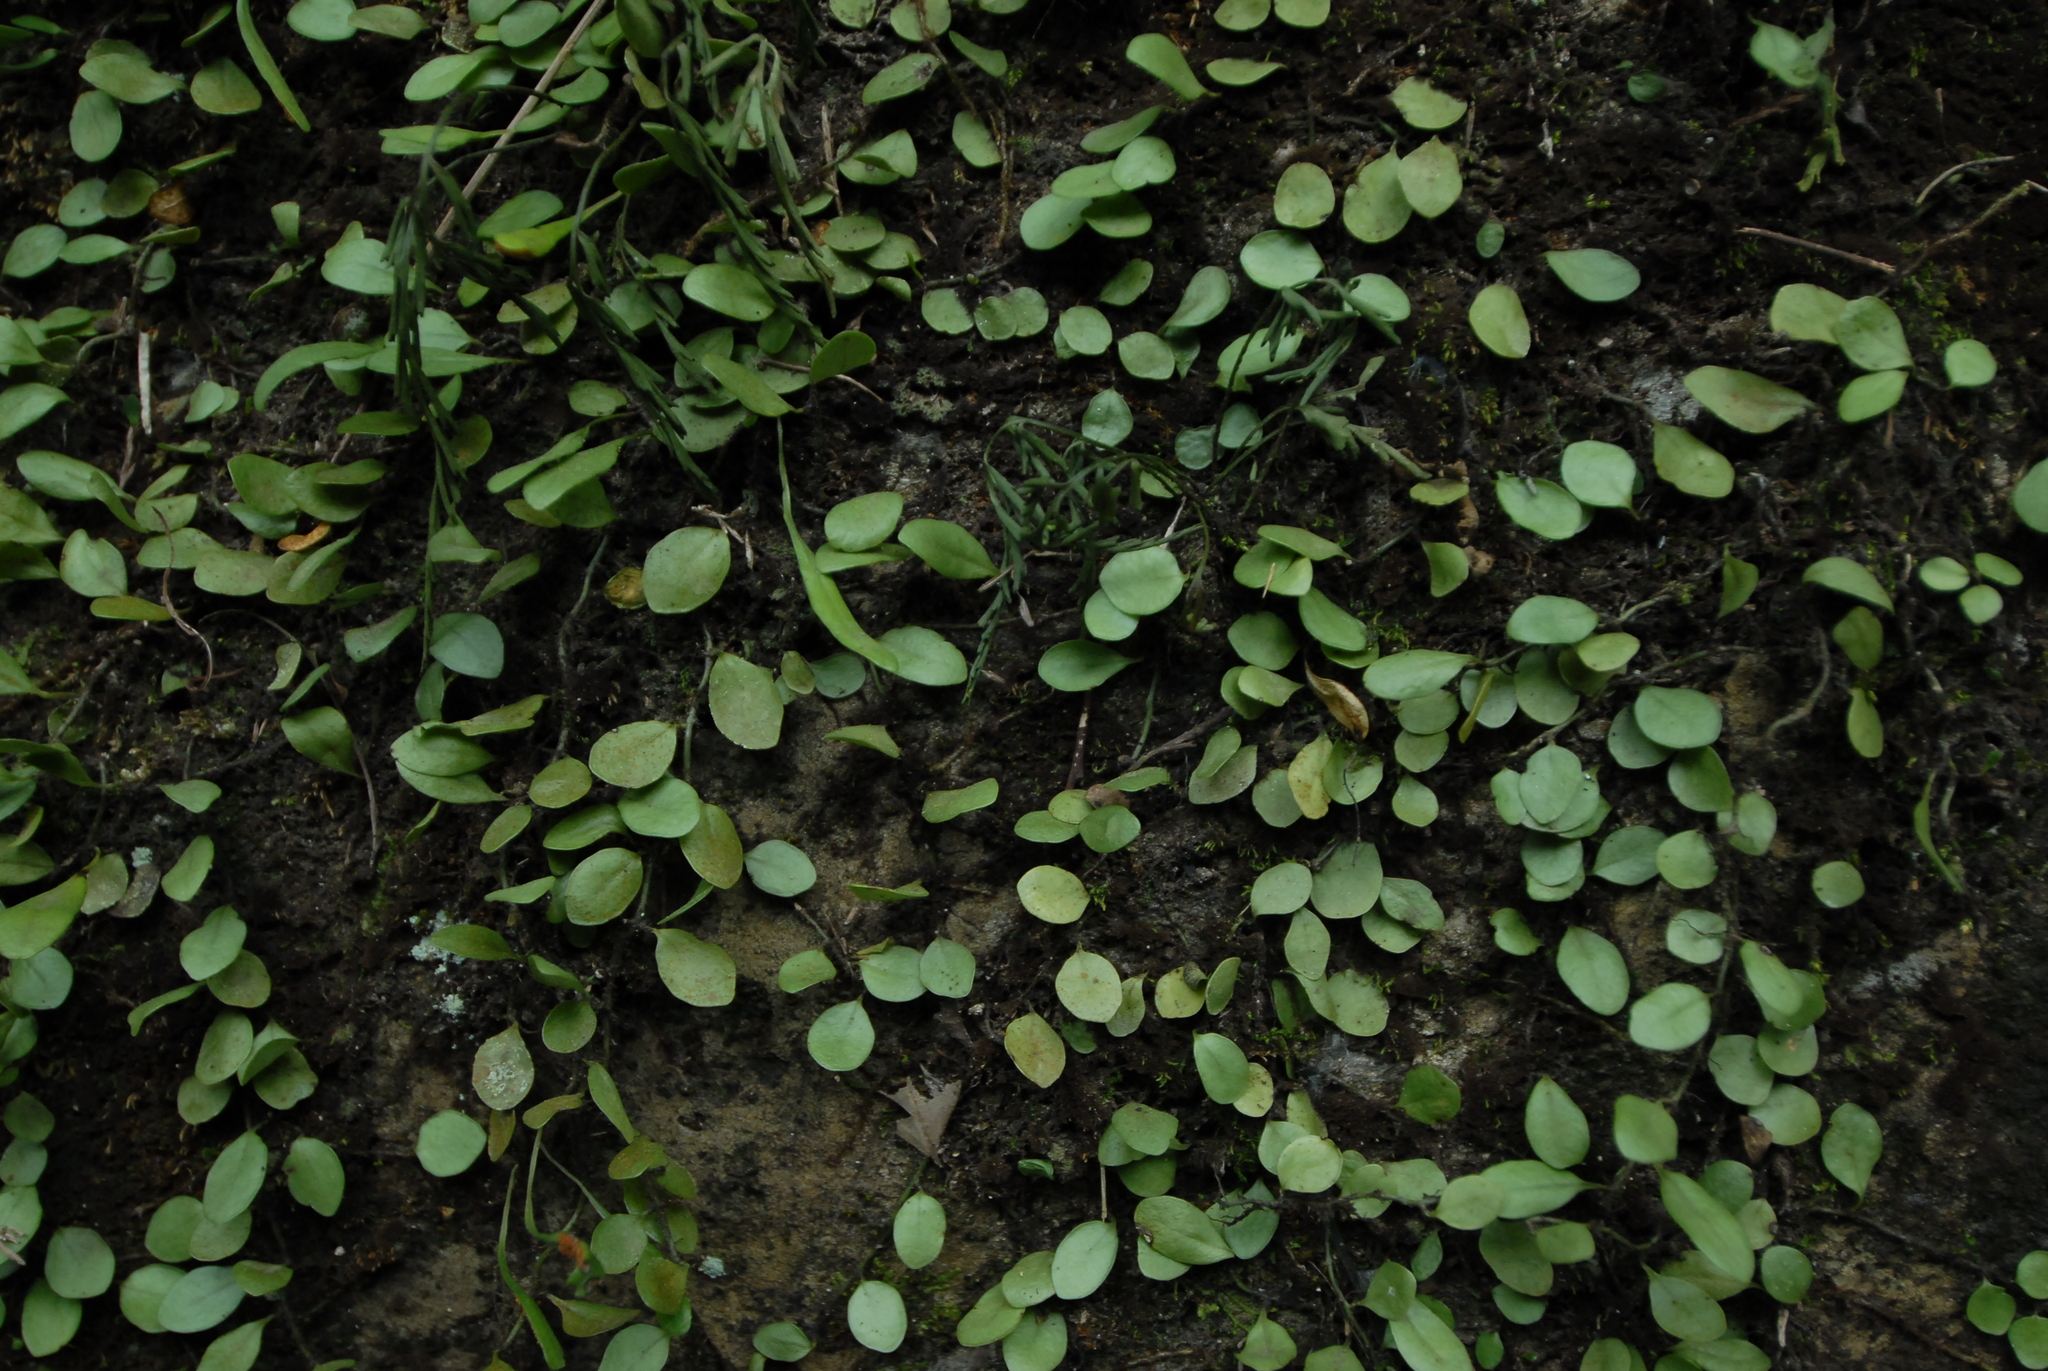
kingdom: Plantae
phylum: Tracheophyta
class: Polypodiopsida
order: Polypodiales
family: Polypodiaceae
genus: Lepisorus
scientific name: Lepisorus microphyllus
